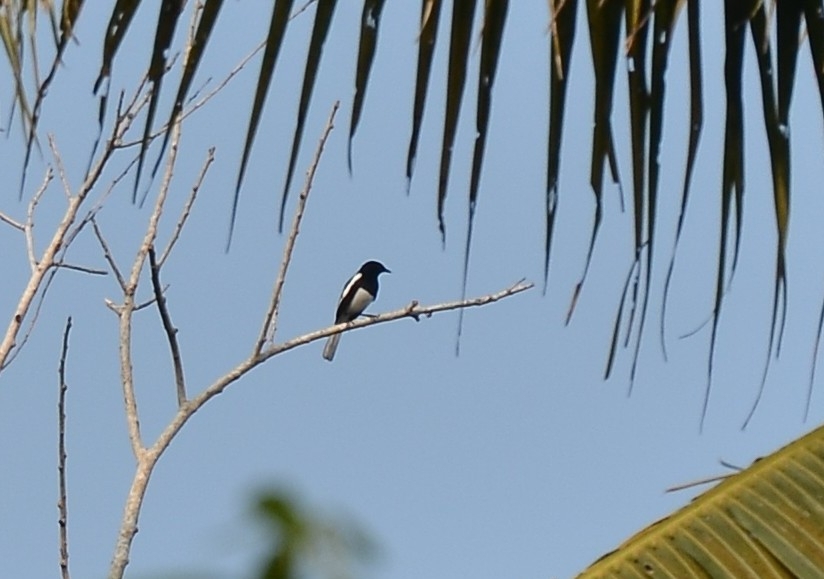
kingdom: Animalia
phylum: Chordata
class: Aves
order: Passeriformes
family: Muscicapidae
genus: Copsychus
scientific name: Copsychus saularis
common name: Oriental magpie-robin
